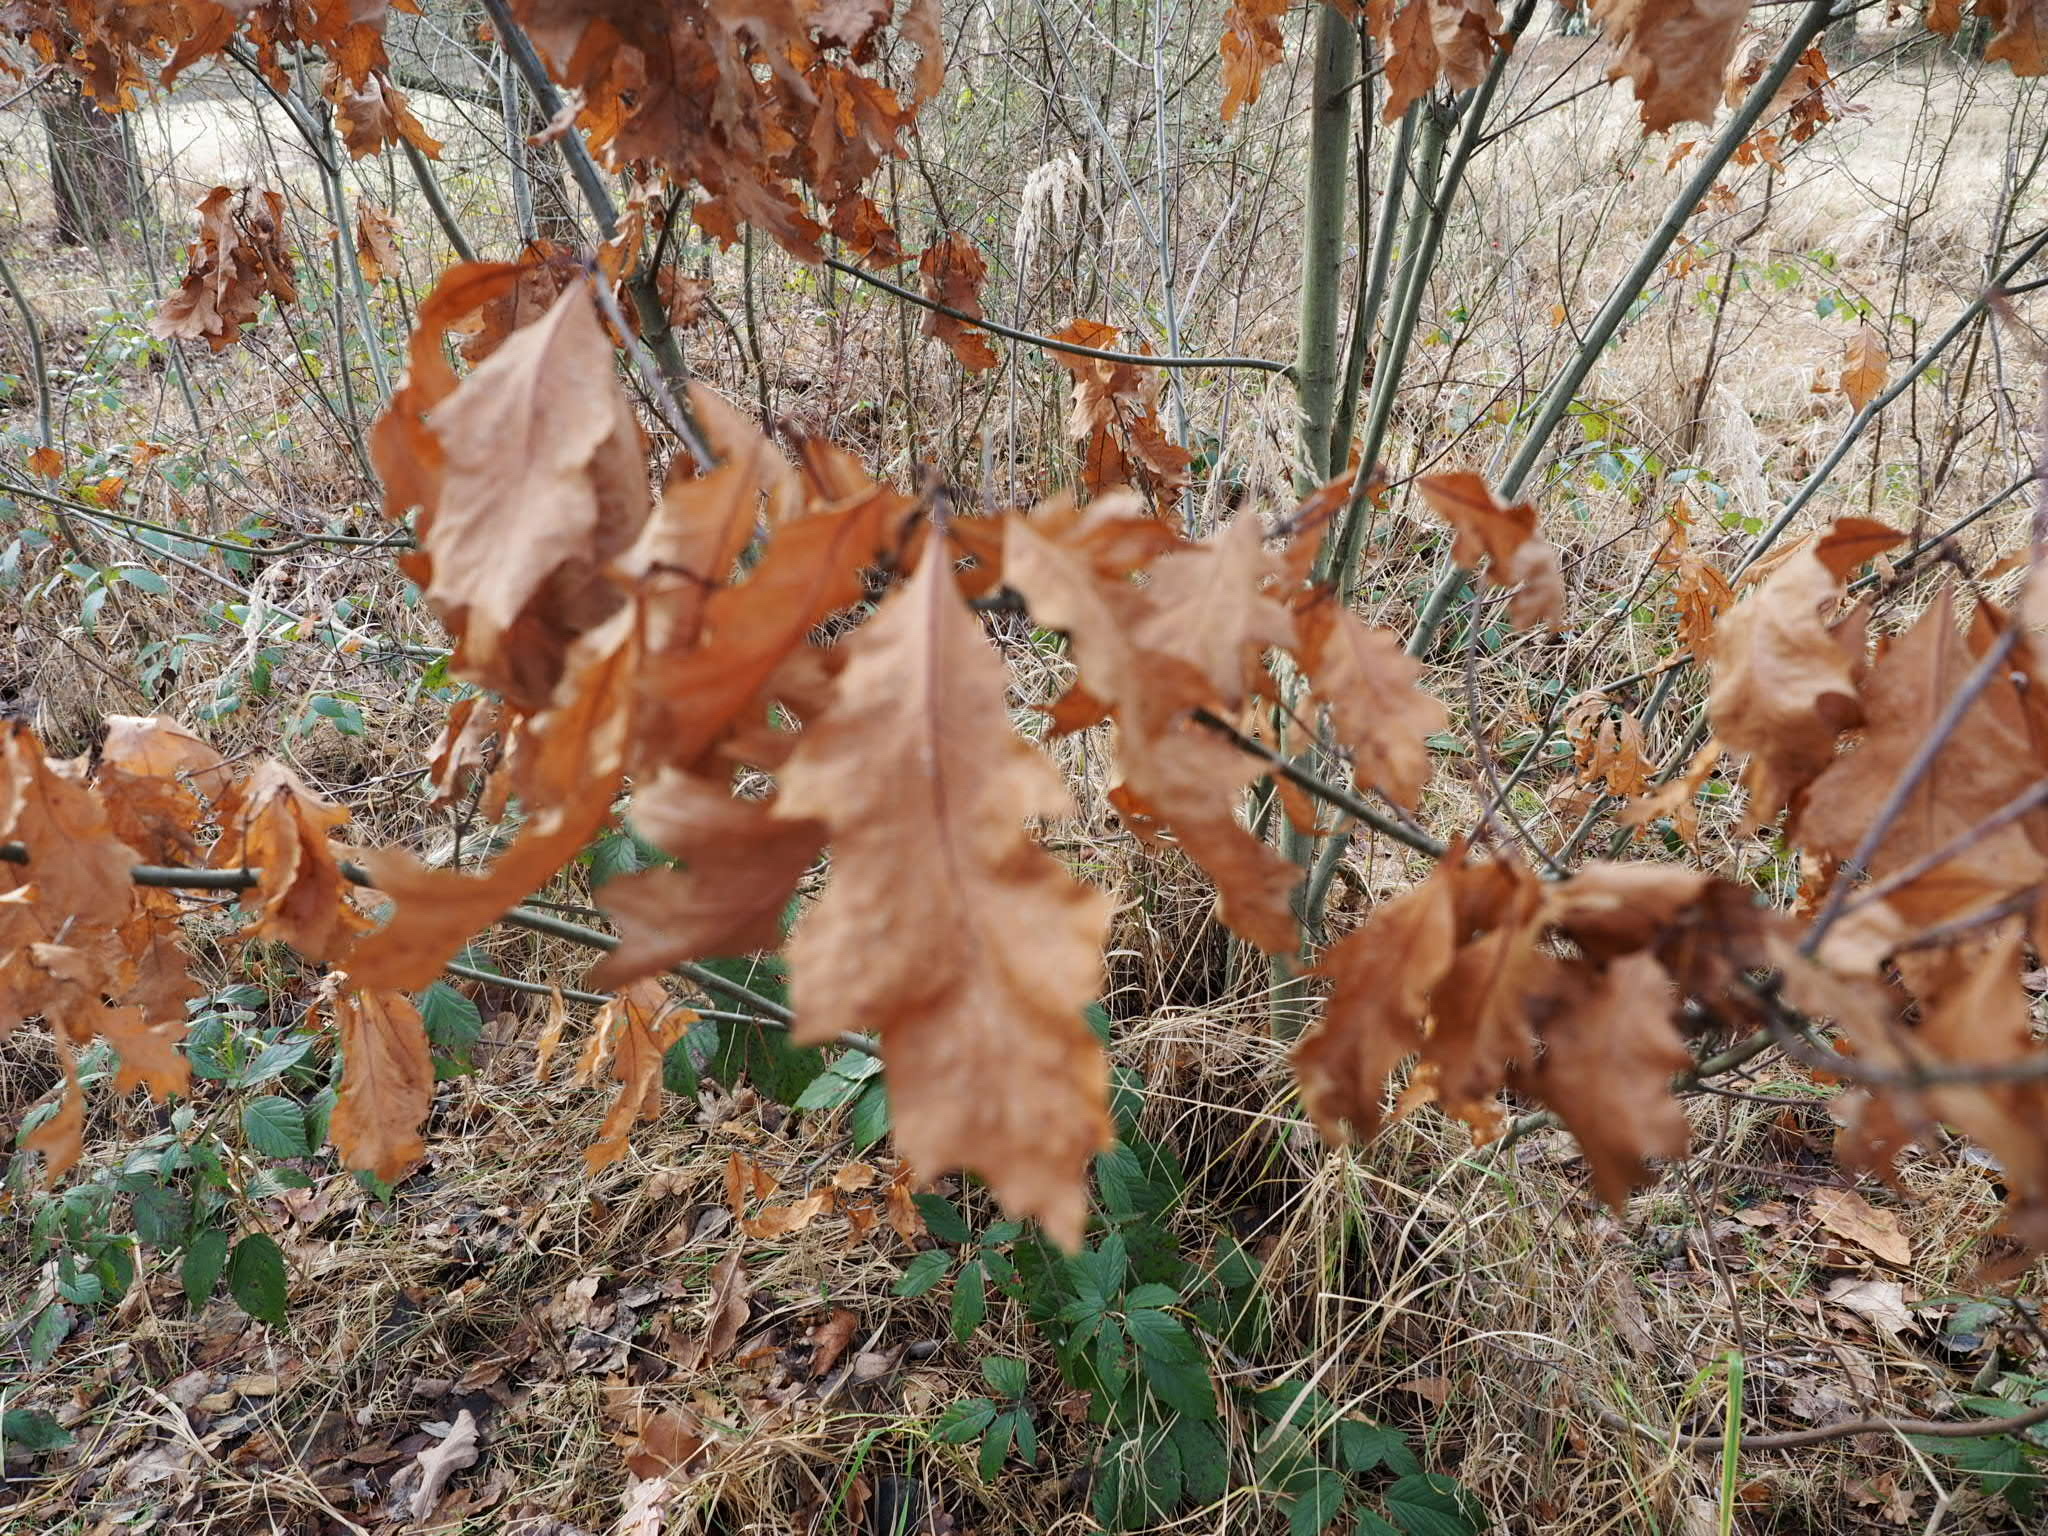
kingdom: Plantae
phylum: Tracheophyta
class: Magnoliopsida
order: Fagales
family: Fagaceae
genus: Quercus
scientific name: Quercus rubra
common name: Red oak
